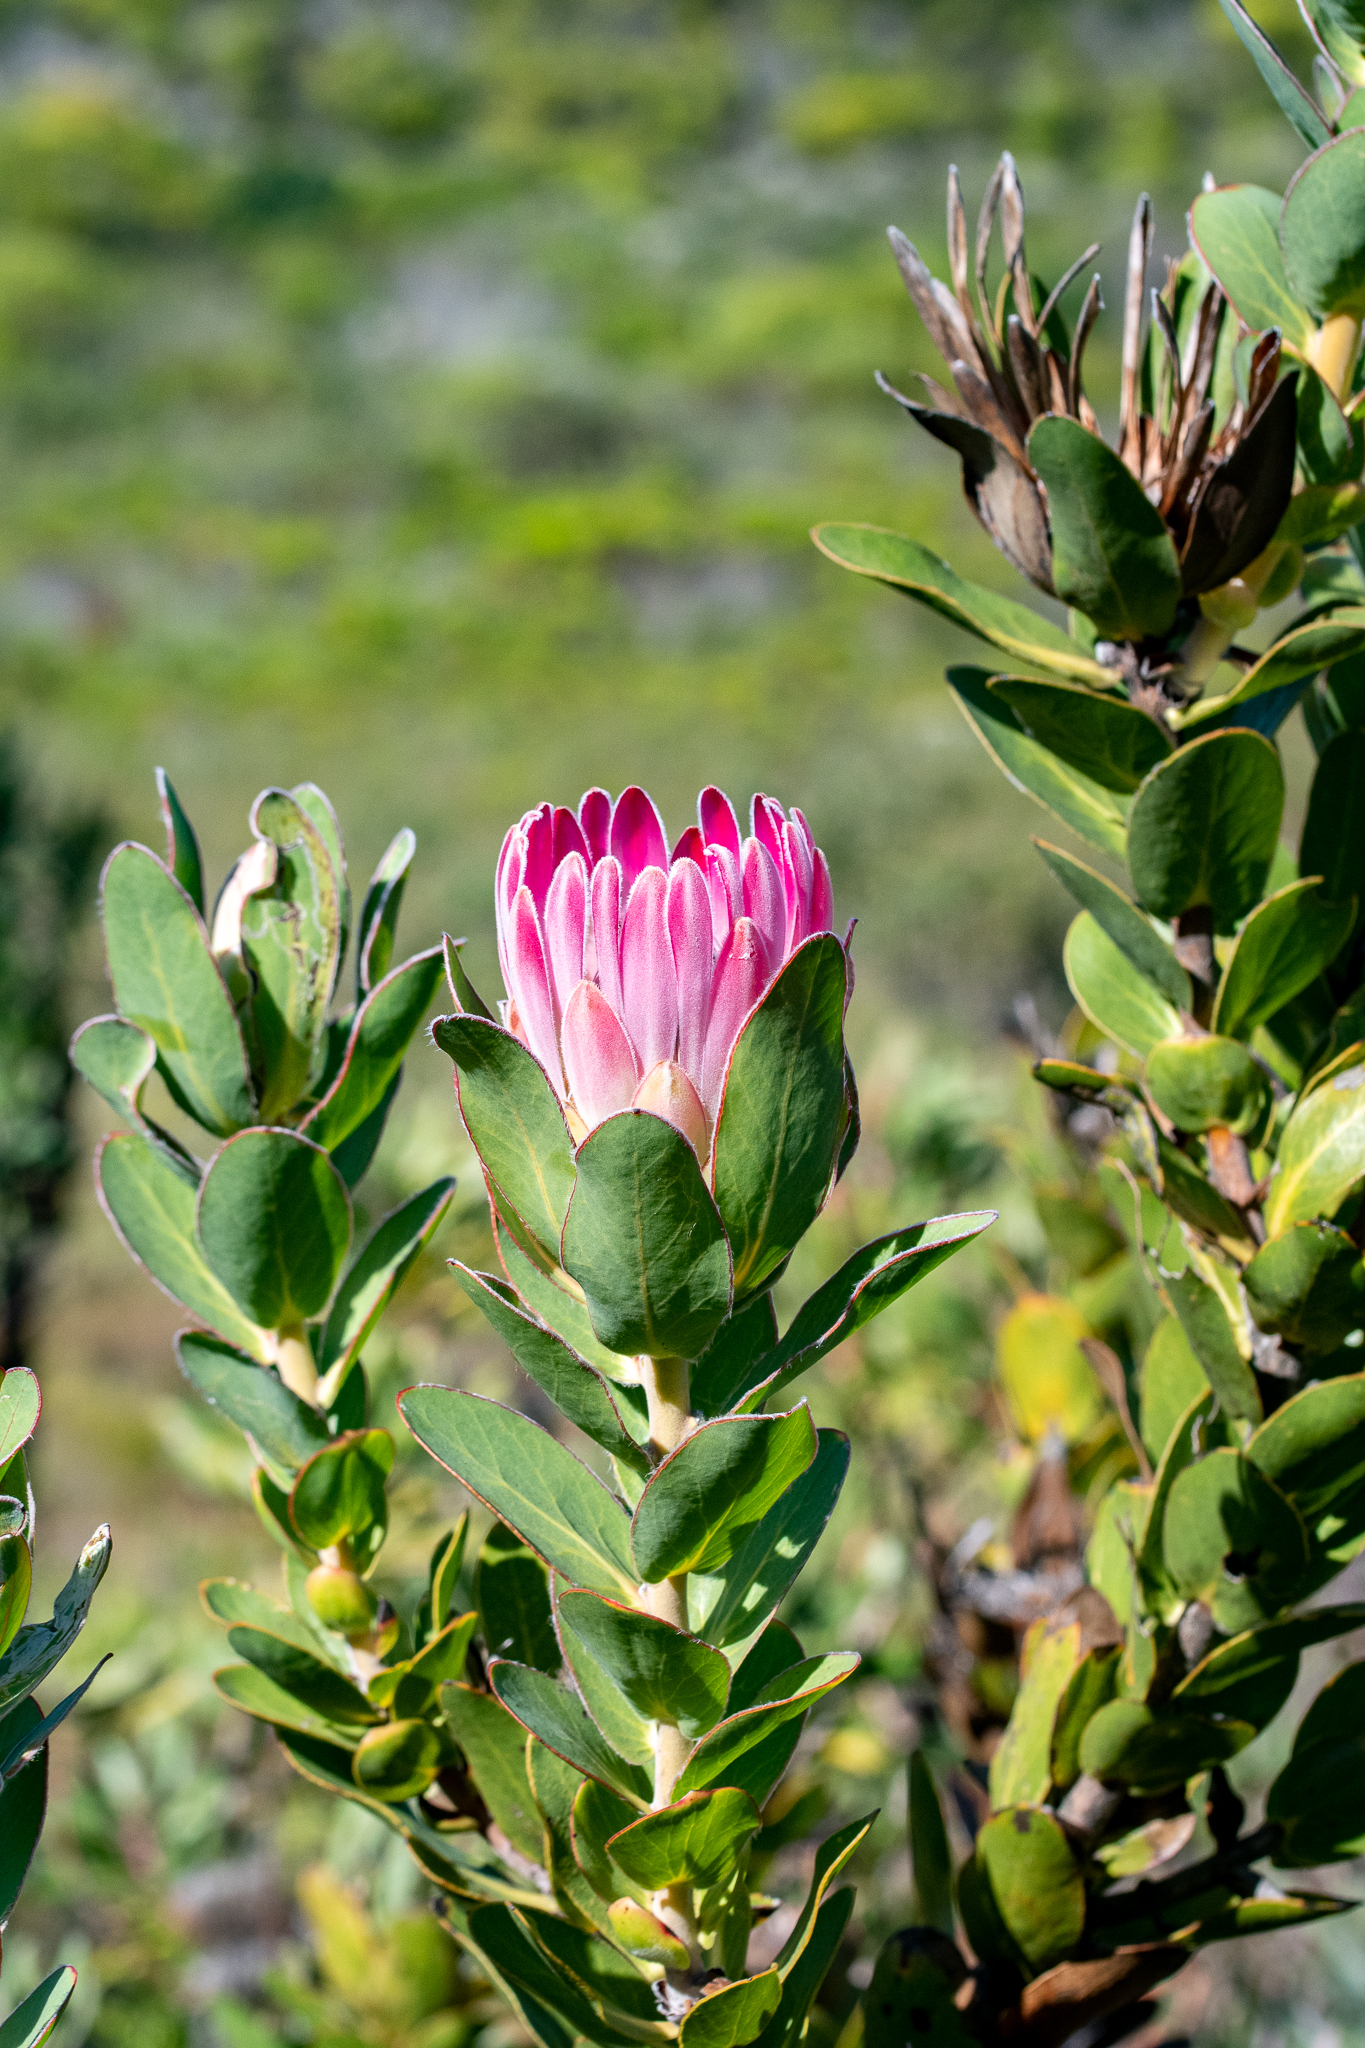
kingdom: Plantae
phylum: Tracheophyta
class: Magnoliopsida
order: Proteales
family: Proteaceae
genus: Protea
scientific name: Protea compacta
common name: Bot river protea
